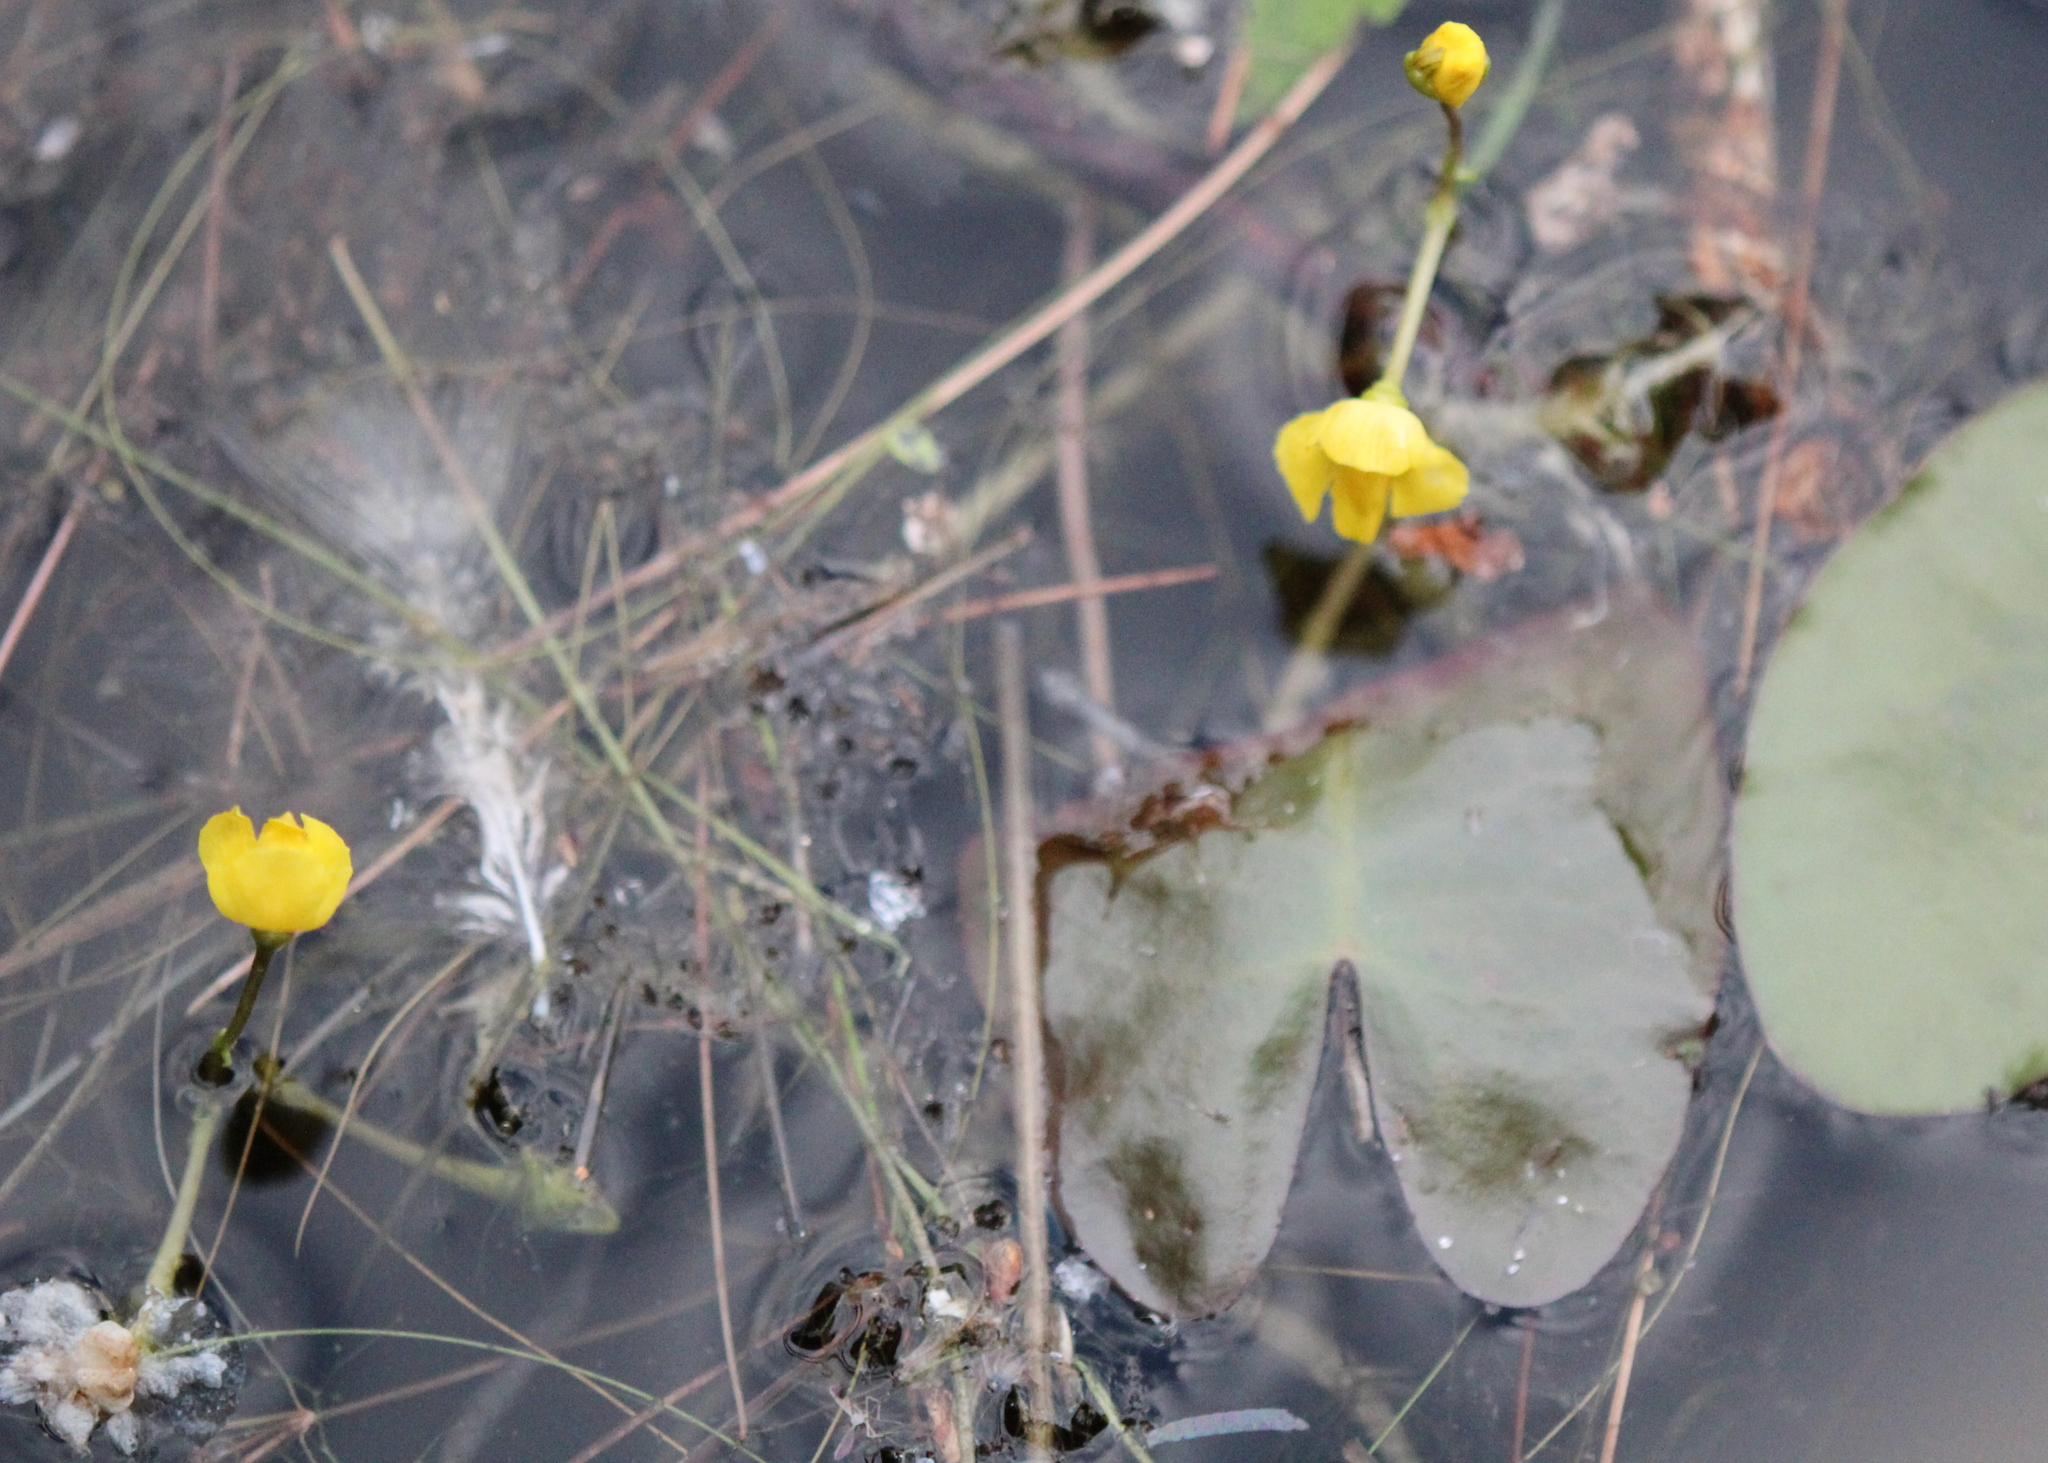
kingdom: Plantae
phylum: Tracheophyta
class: Magnoliopsida
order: Lamiales
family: Lentibulariaceae
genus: Utricularia
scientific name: Utricularia radiata
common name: Floating bladderwort
